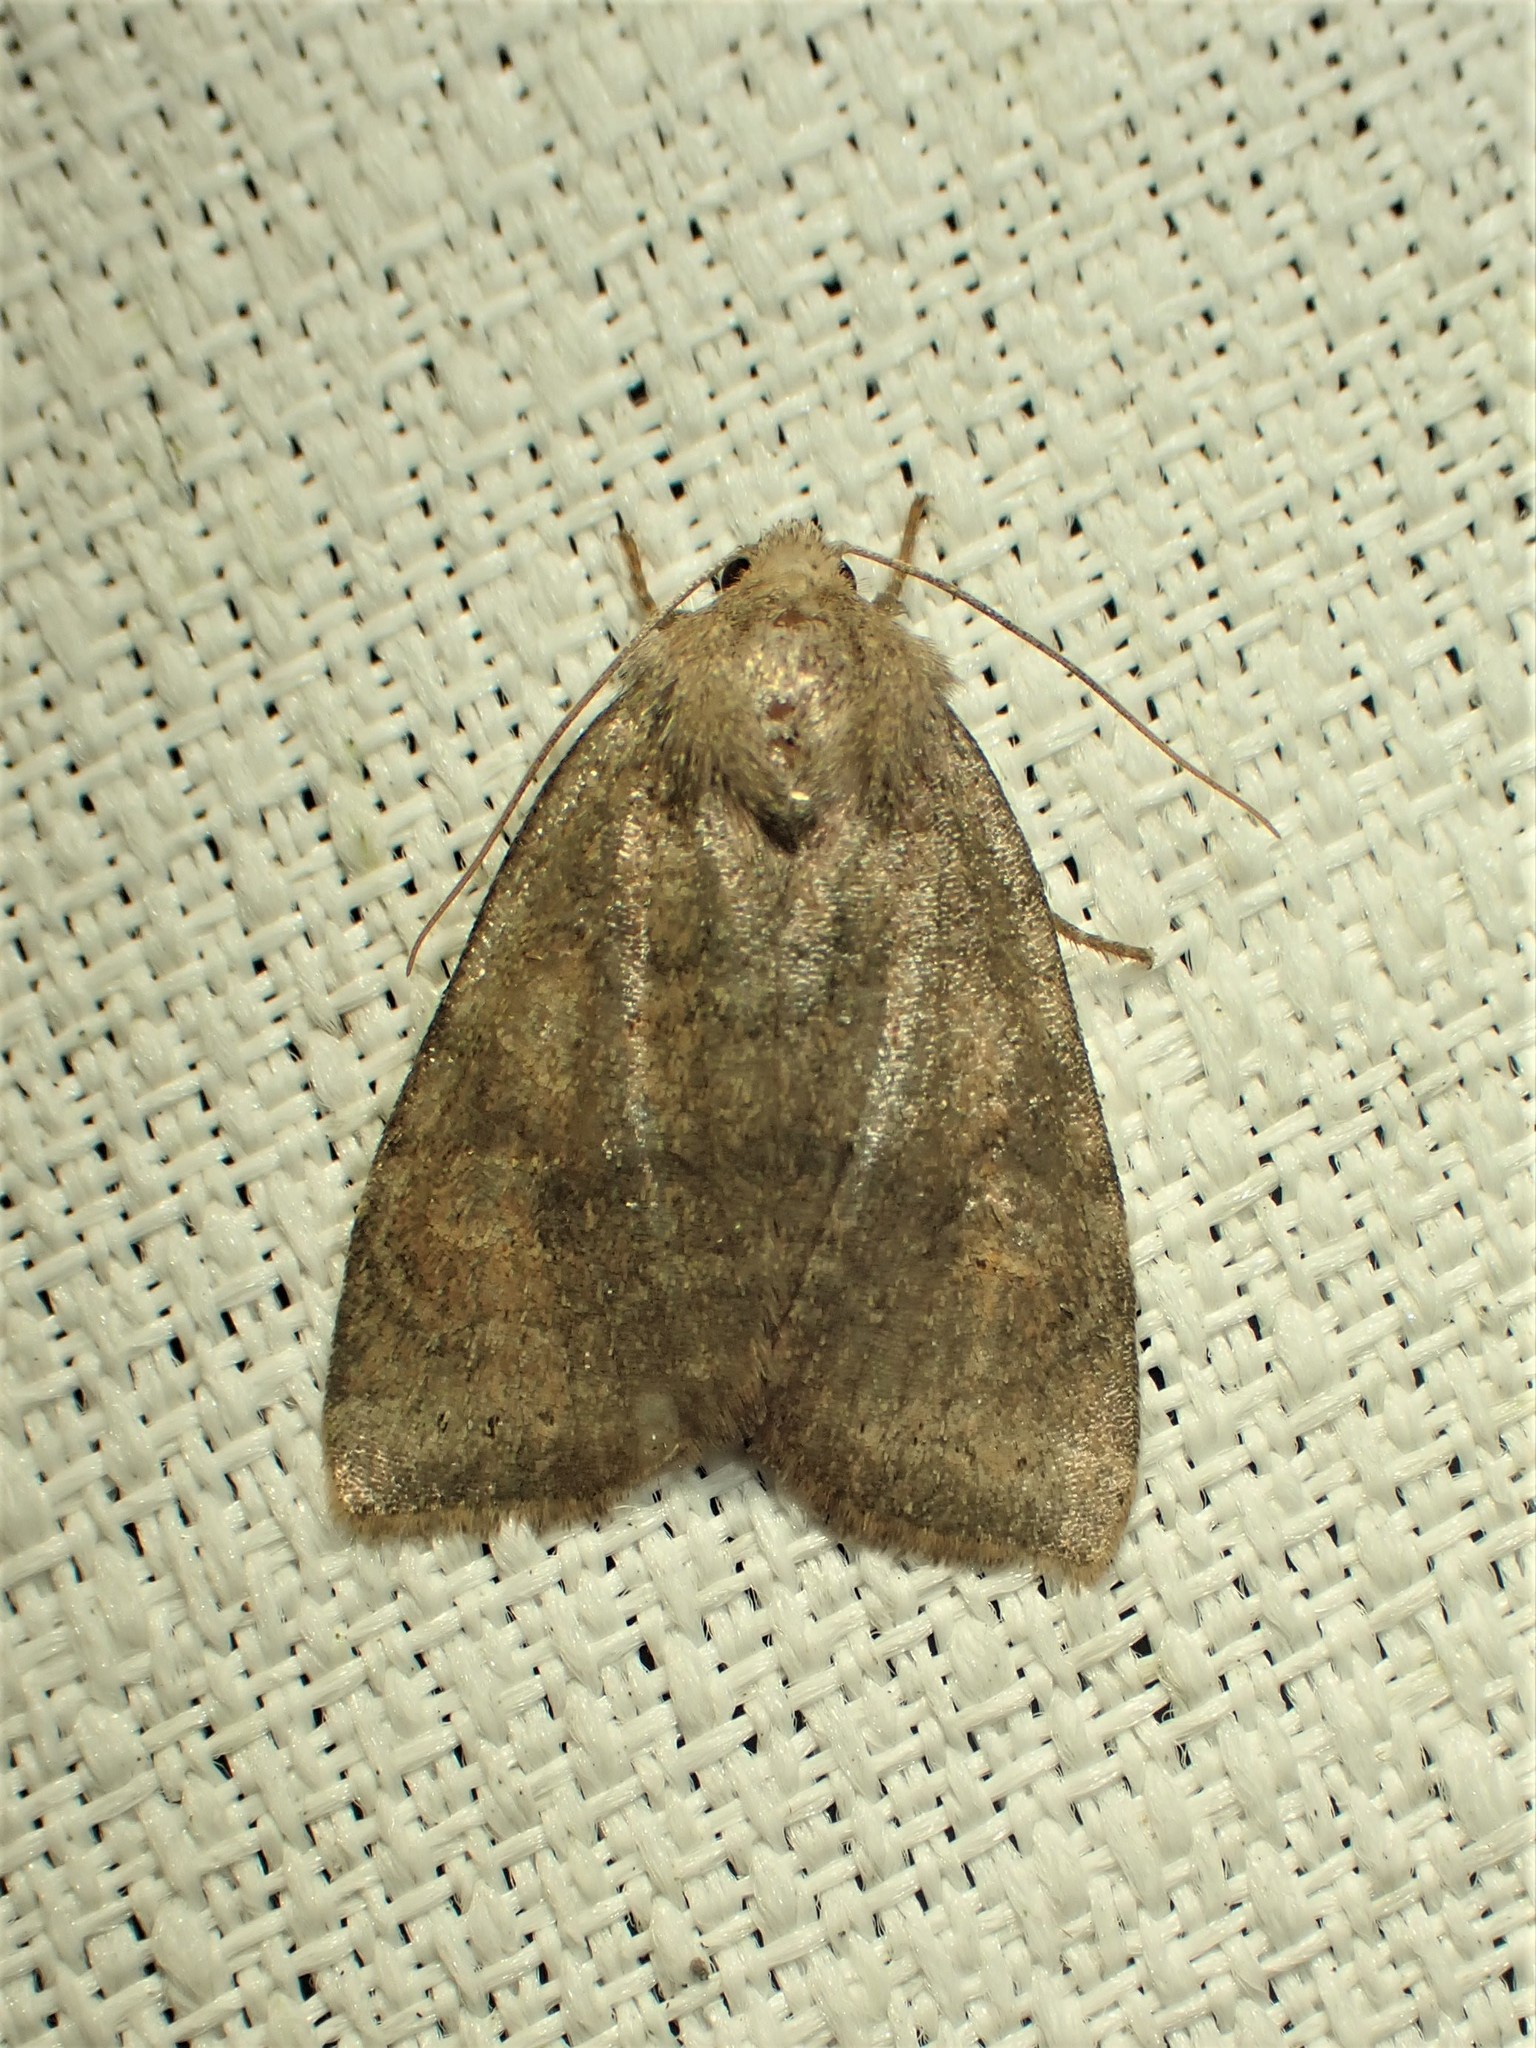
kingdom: Animalia
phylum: Arthropoda
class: Insecta
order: Lepidoptera
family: Noctuidae
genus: Anathix
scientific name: Anathix puta
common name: Puta sallow
